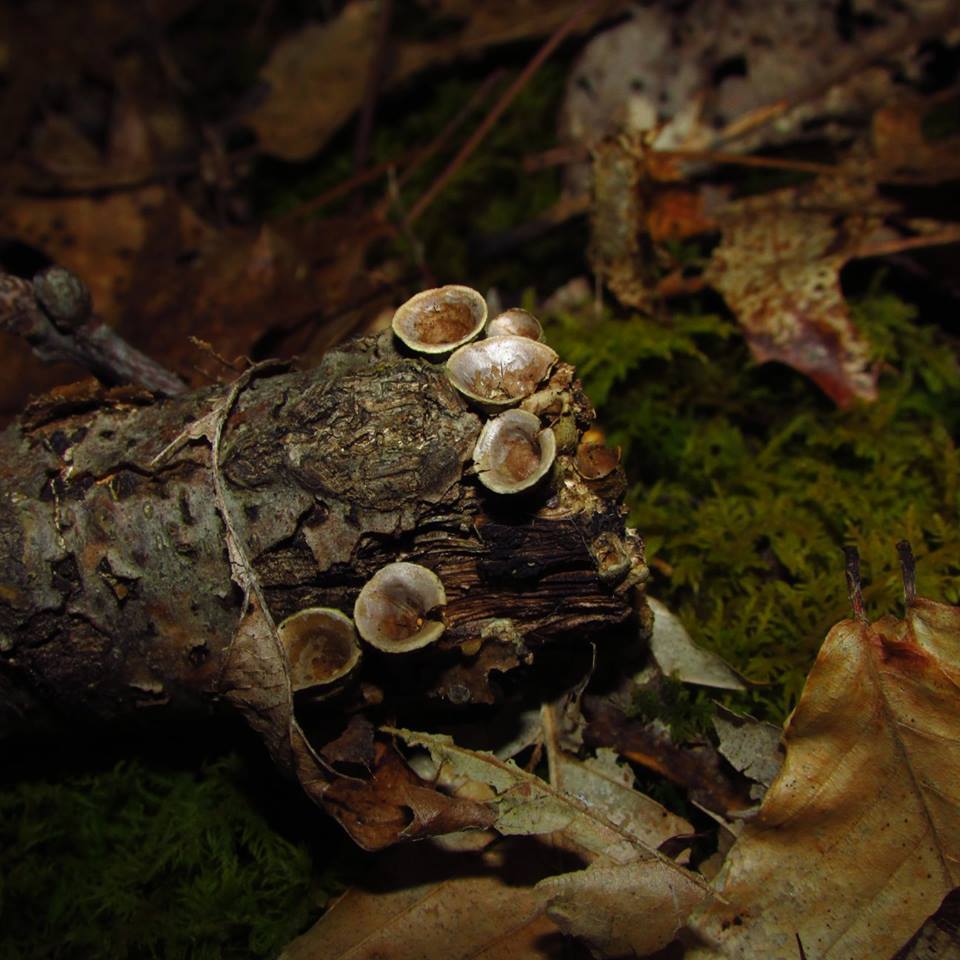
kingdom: Fungi
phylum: Basidiomycota
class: Agaricomycetes
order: Agaricales
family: Nidulariaceae
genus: Crucibulum
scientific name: Crucibulum laeve
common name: Common bird's nest
